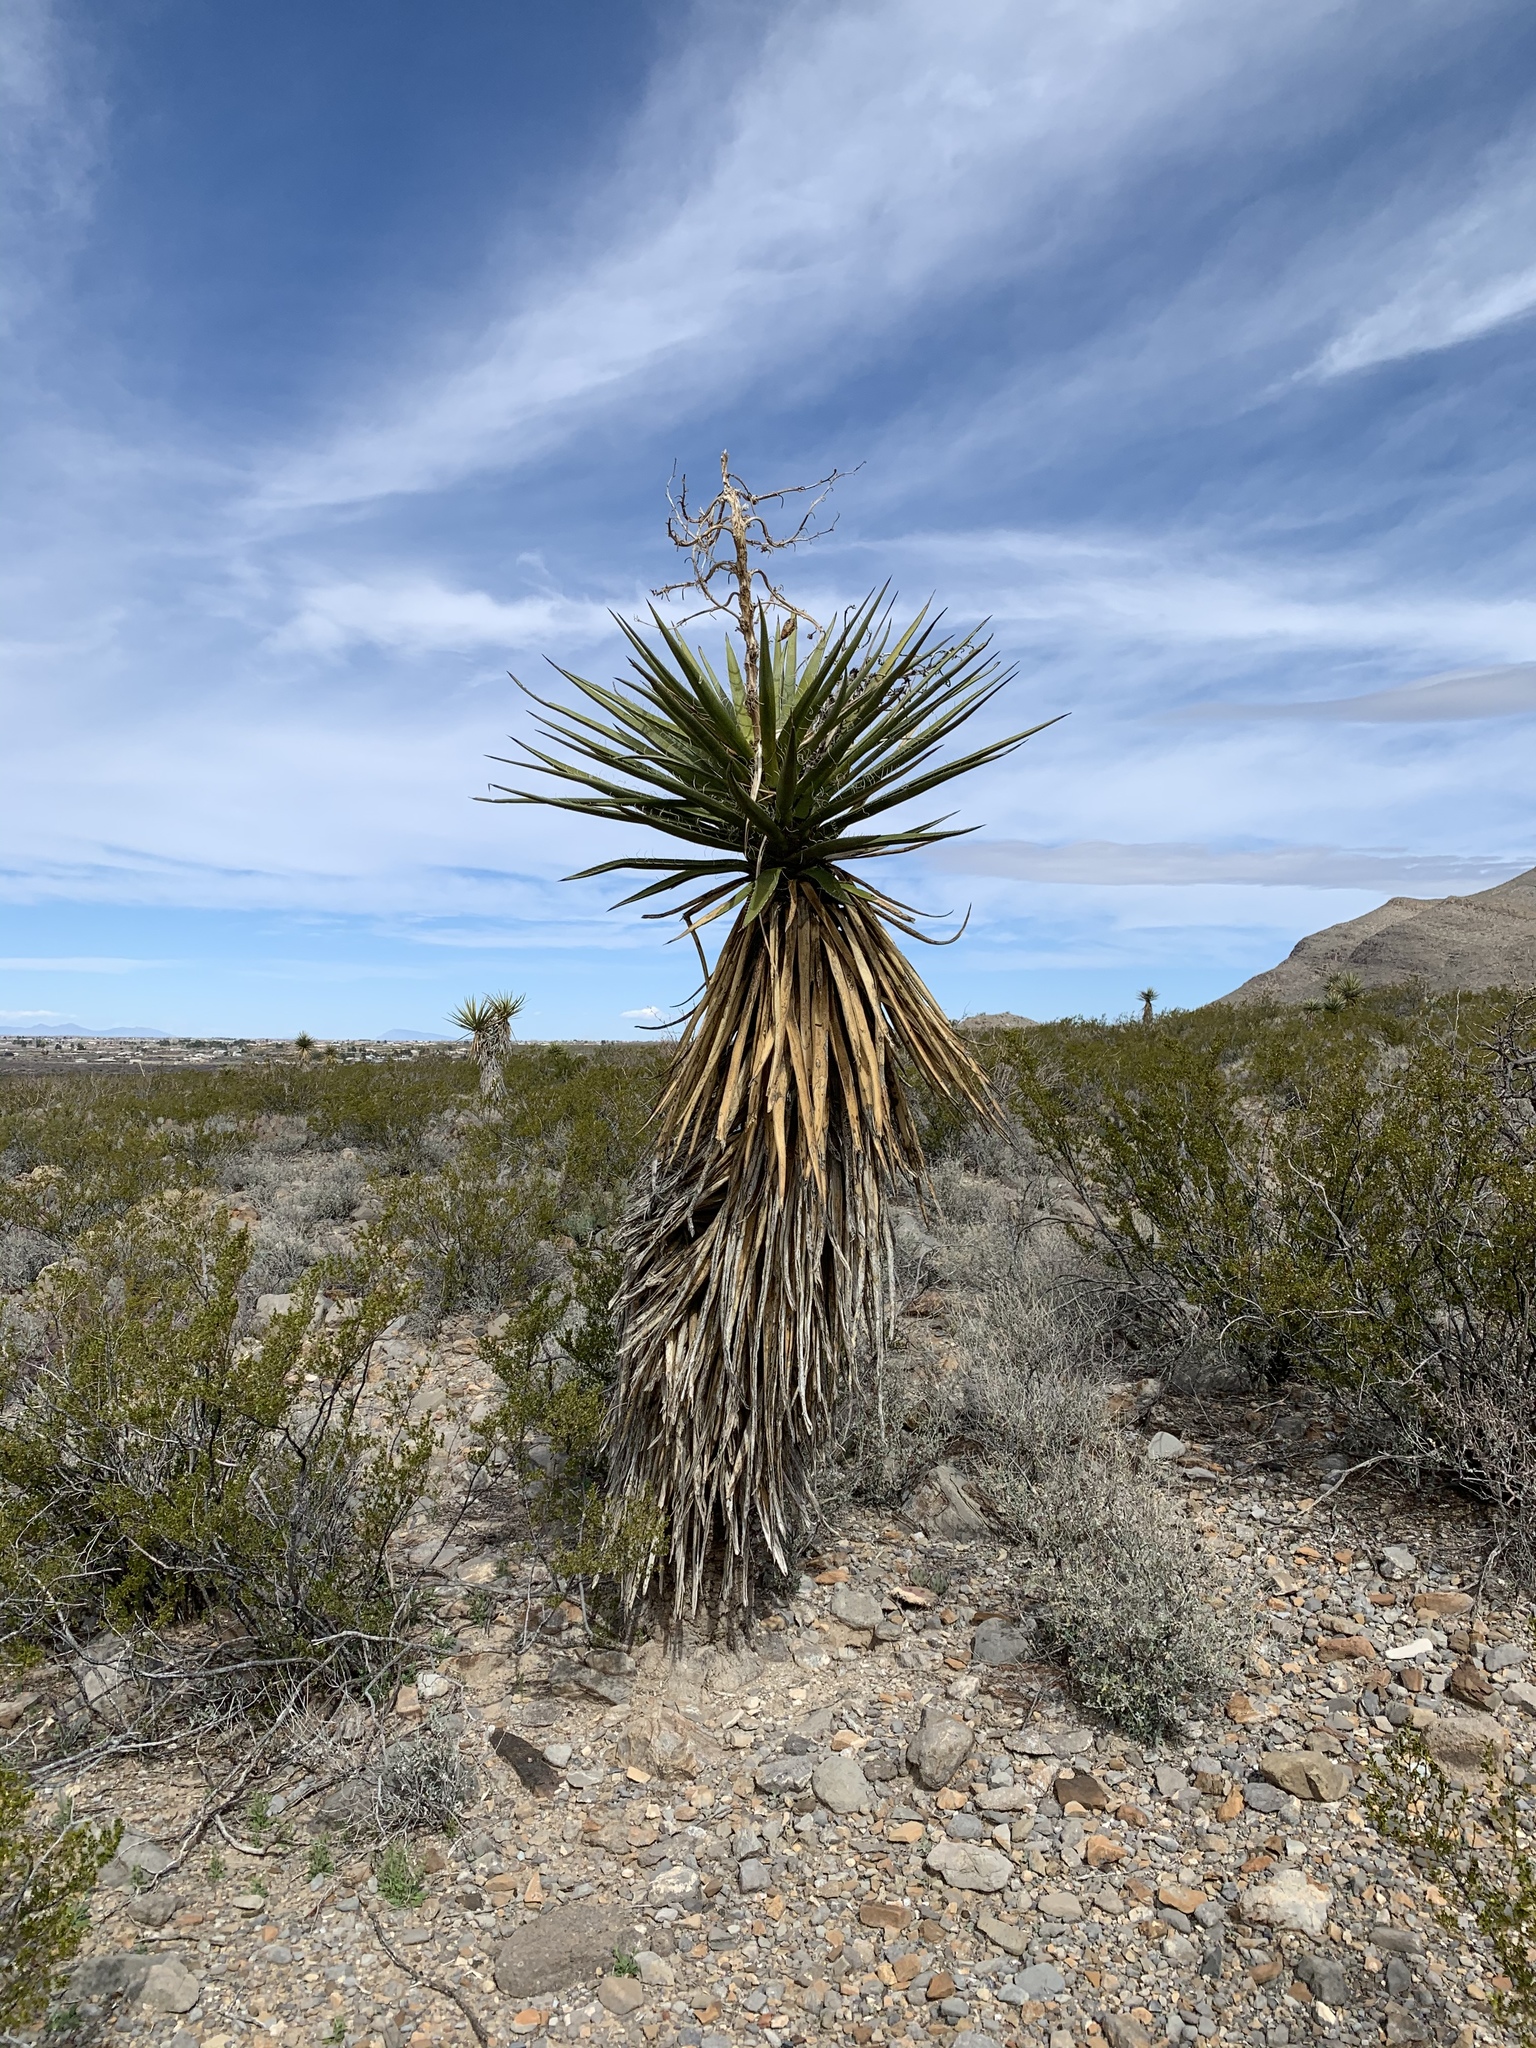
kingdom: Plantae
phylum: Tracheophyta
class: Liliopsida
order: Asparagales
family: Asparagaceae
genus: Yucca
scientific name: Yucca treculiana
